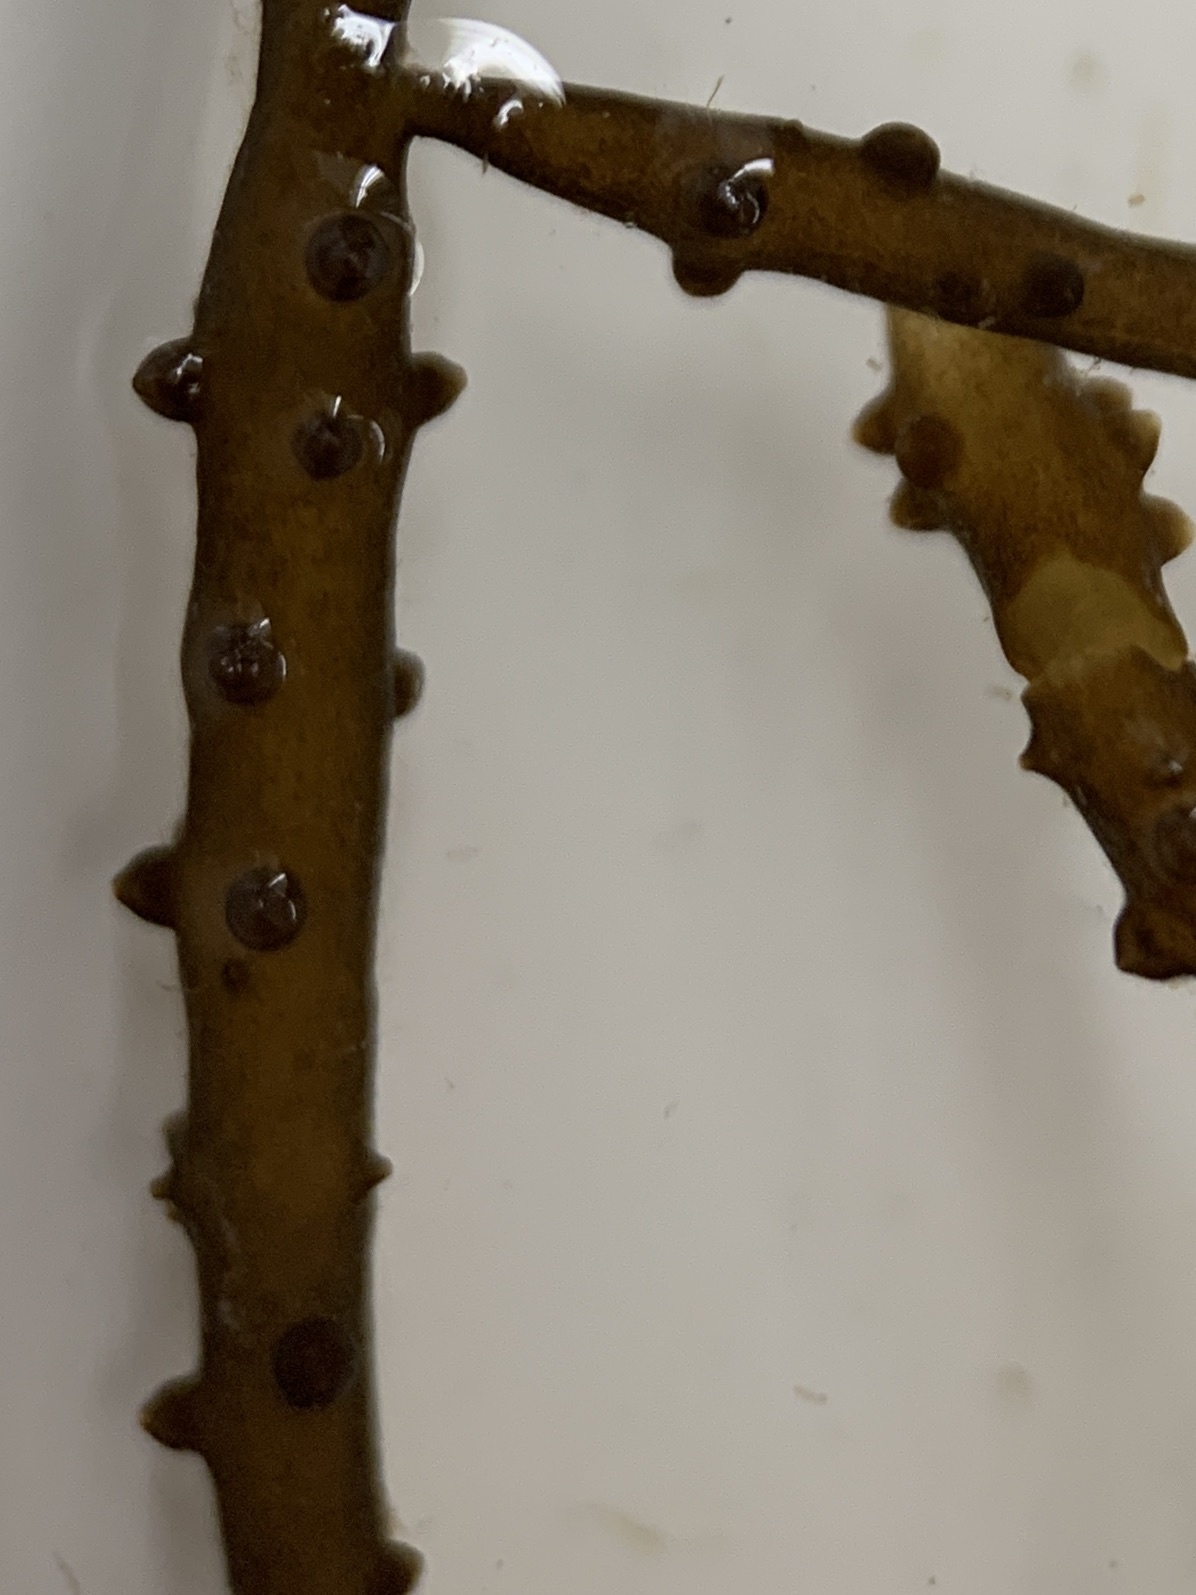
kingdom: Plantae
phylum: Rhodophyta
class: Florideophyceae
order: Gracilariales
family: Gracilariaceae
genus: Gracilaria
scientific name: Gracilaria tikvahiae
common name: Red algae
